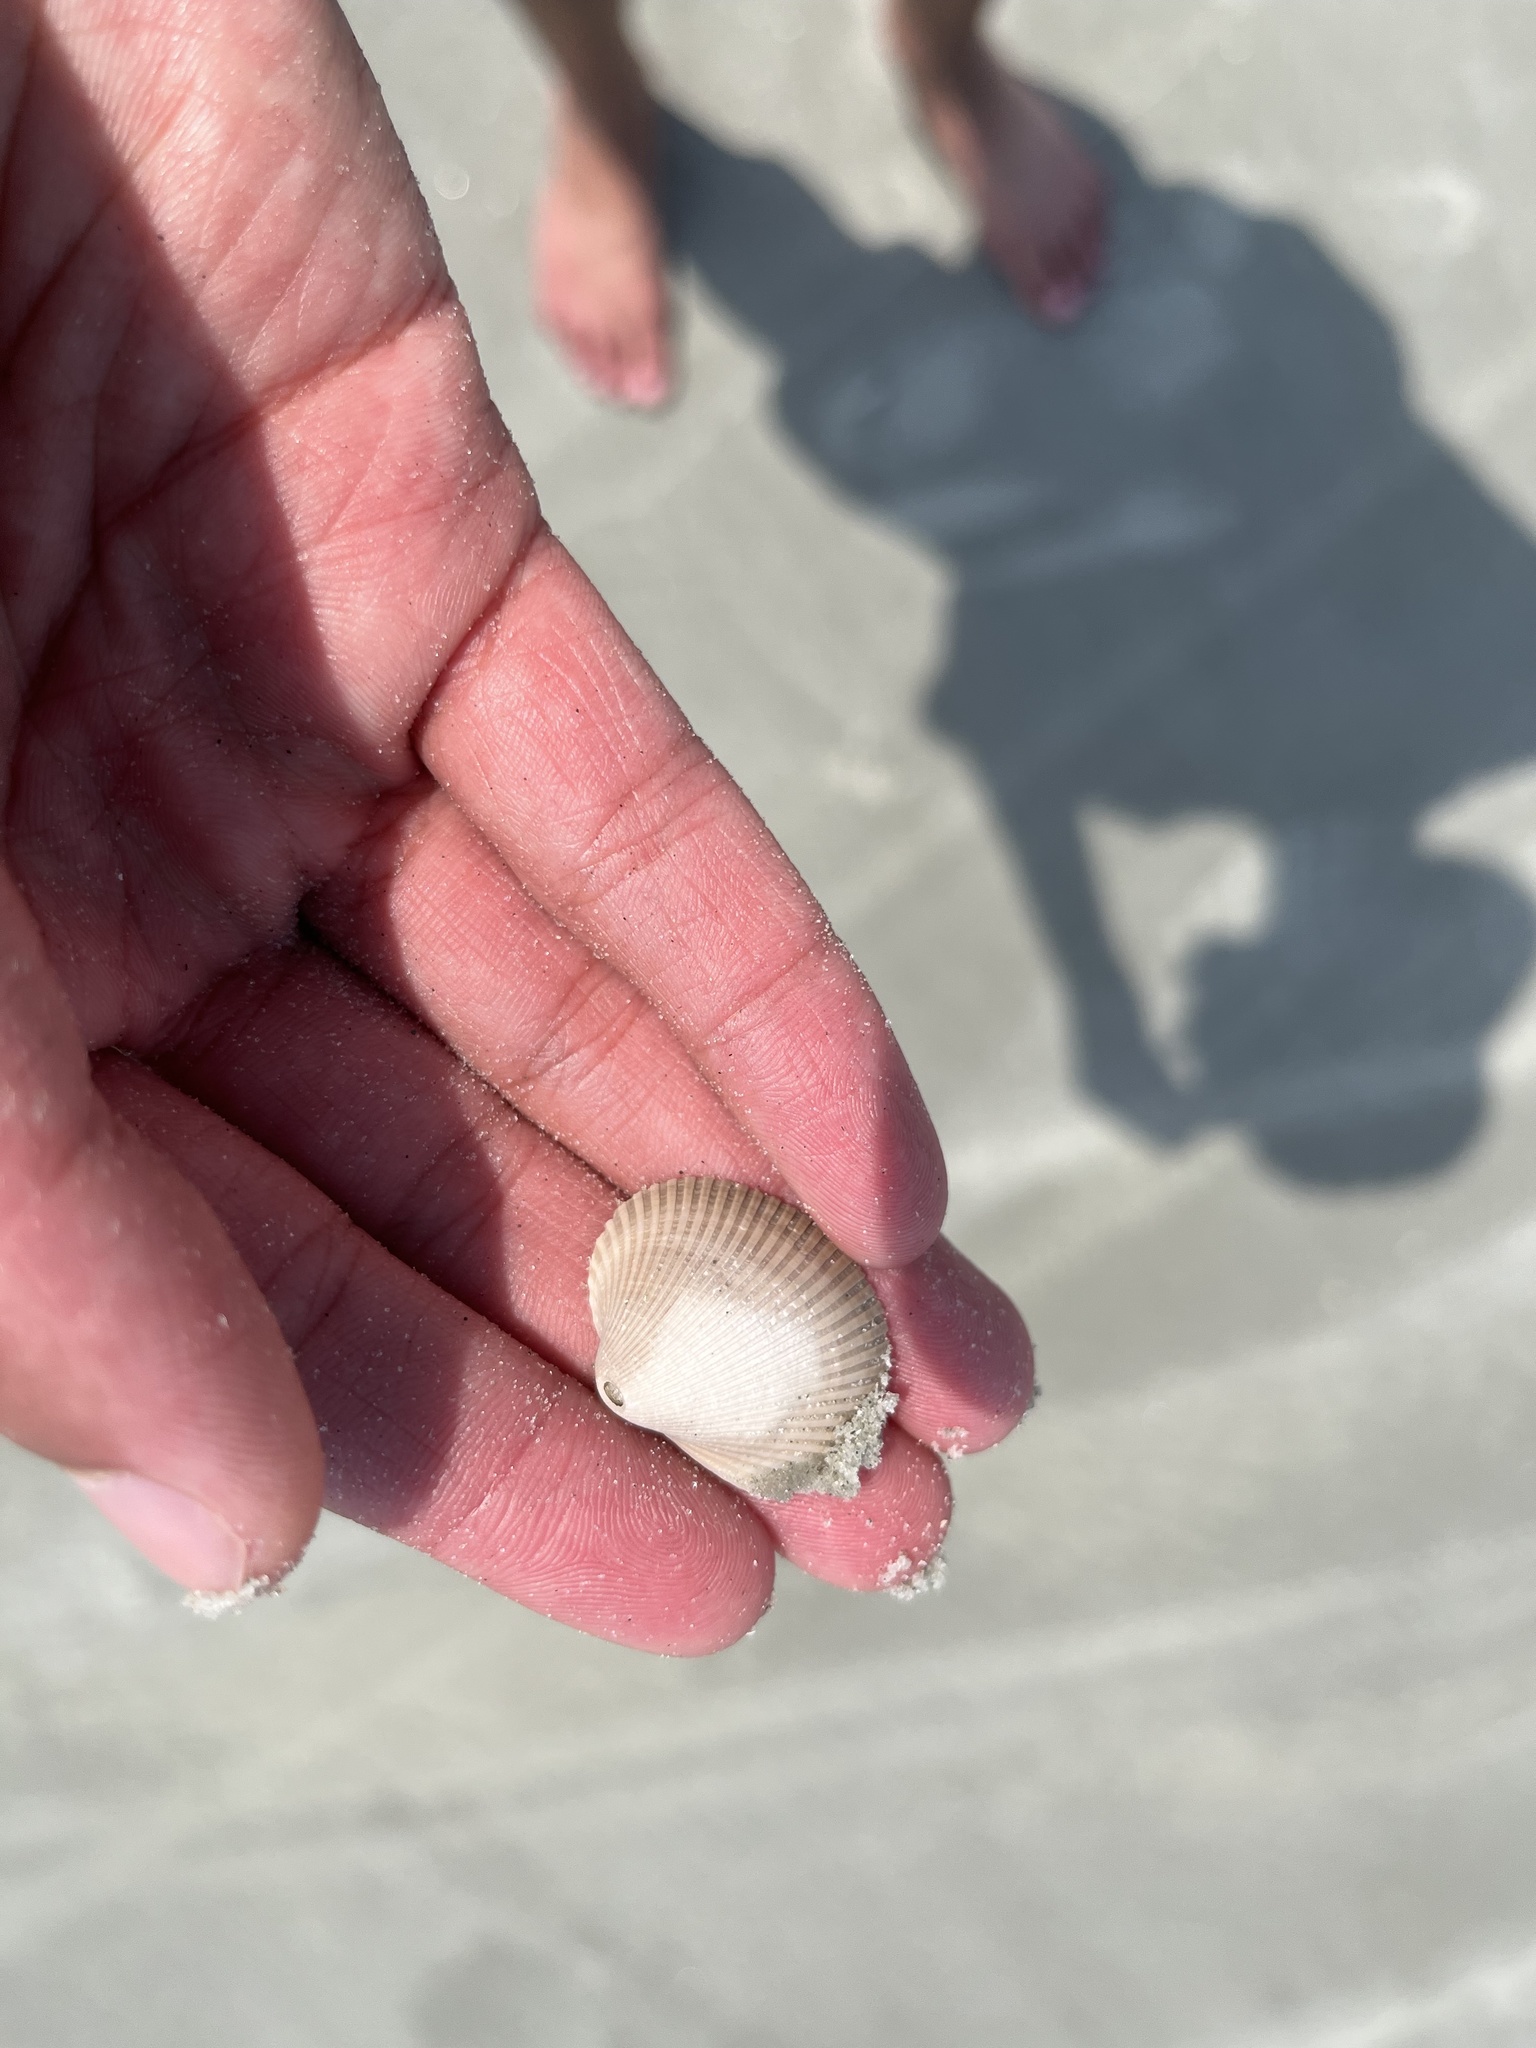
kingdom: Animalia
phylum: Mollusca
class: Bivalvia
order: Arcida
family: Arcidae
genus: Lunarca
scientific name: Lunarca ovalis
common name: Blood ark
